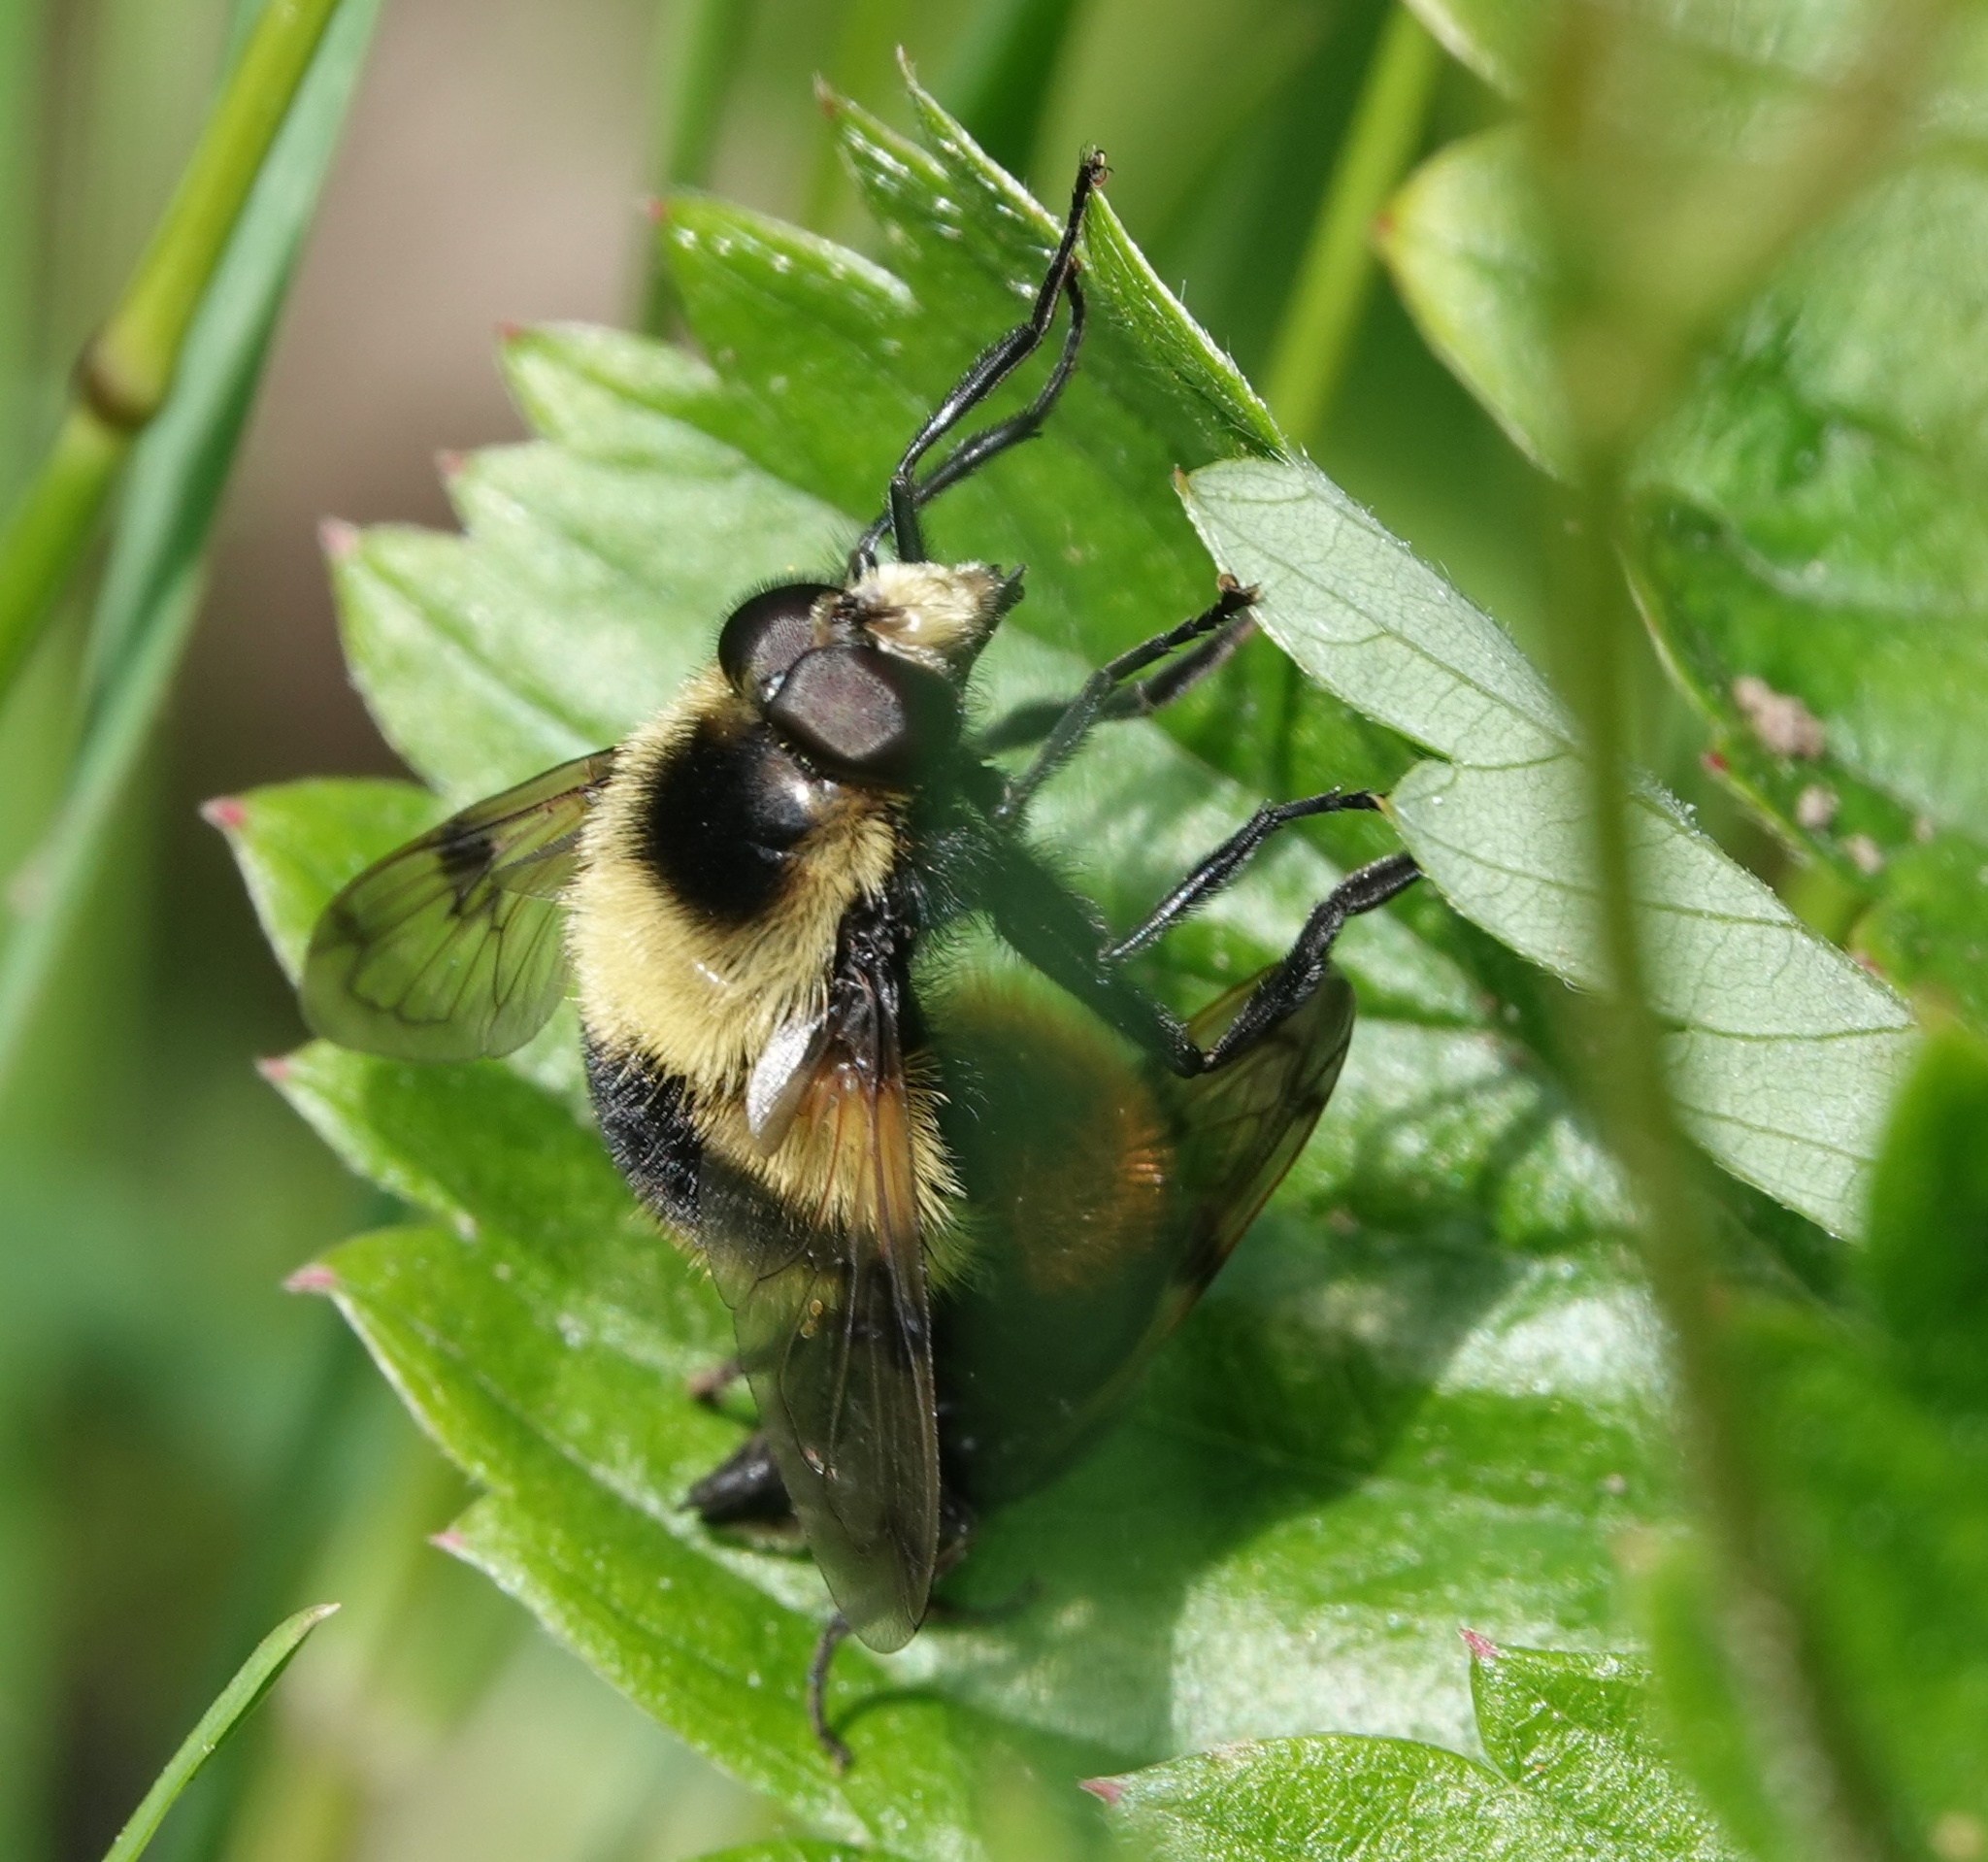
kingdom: Animalia
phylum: Arthropoda
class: Insecta
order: Diptera
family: Syrphidae
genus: Volucella
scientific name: Volucella bombylans
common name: Bumble bee hover fly
